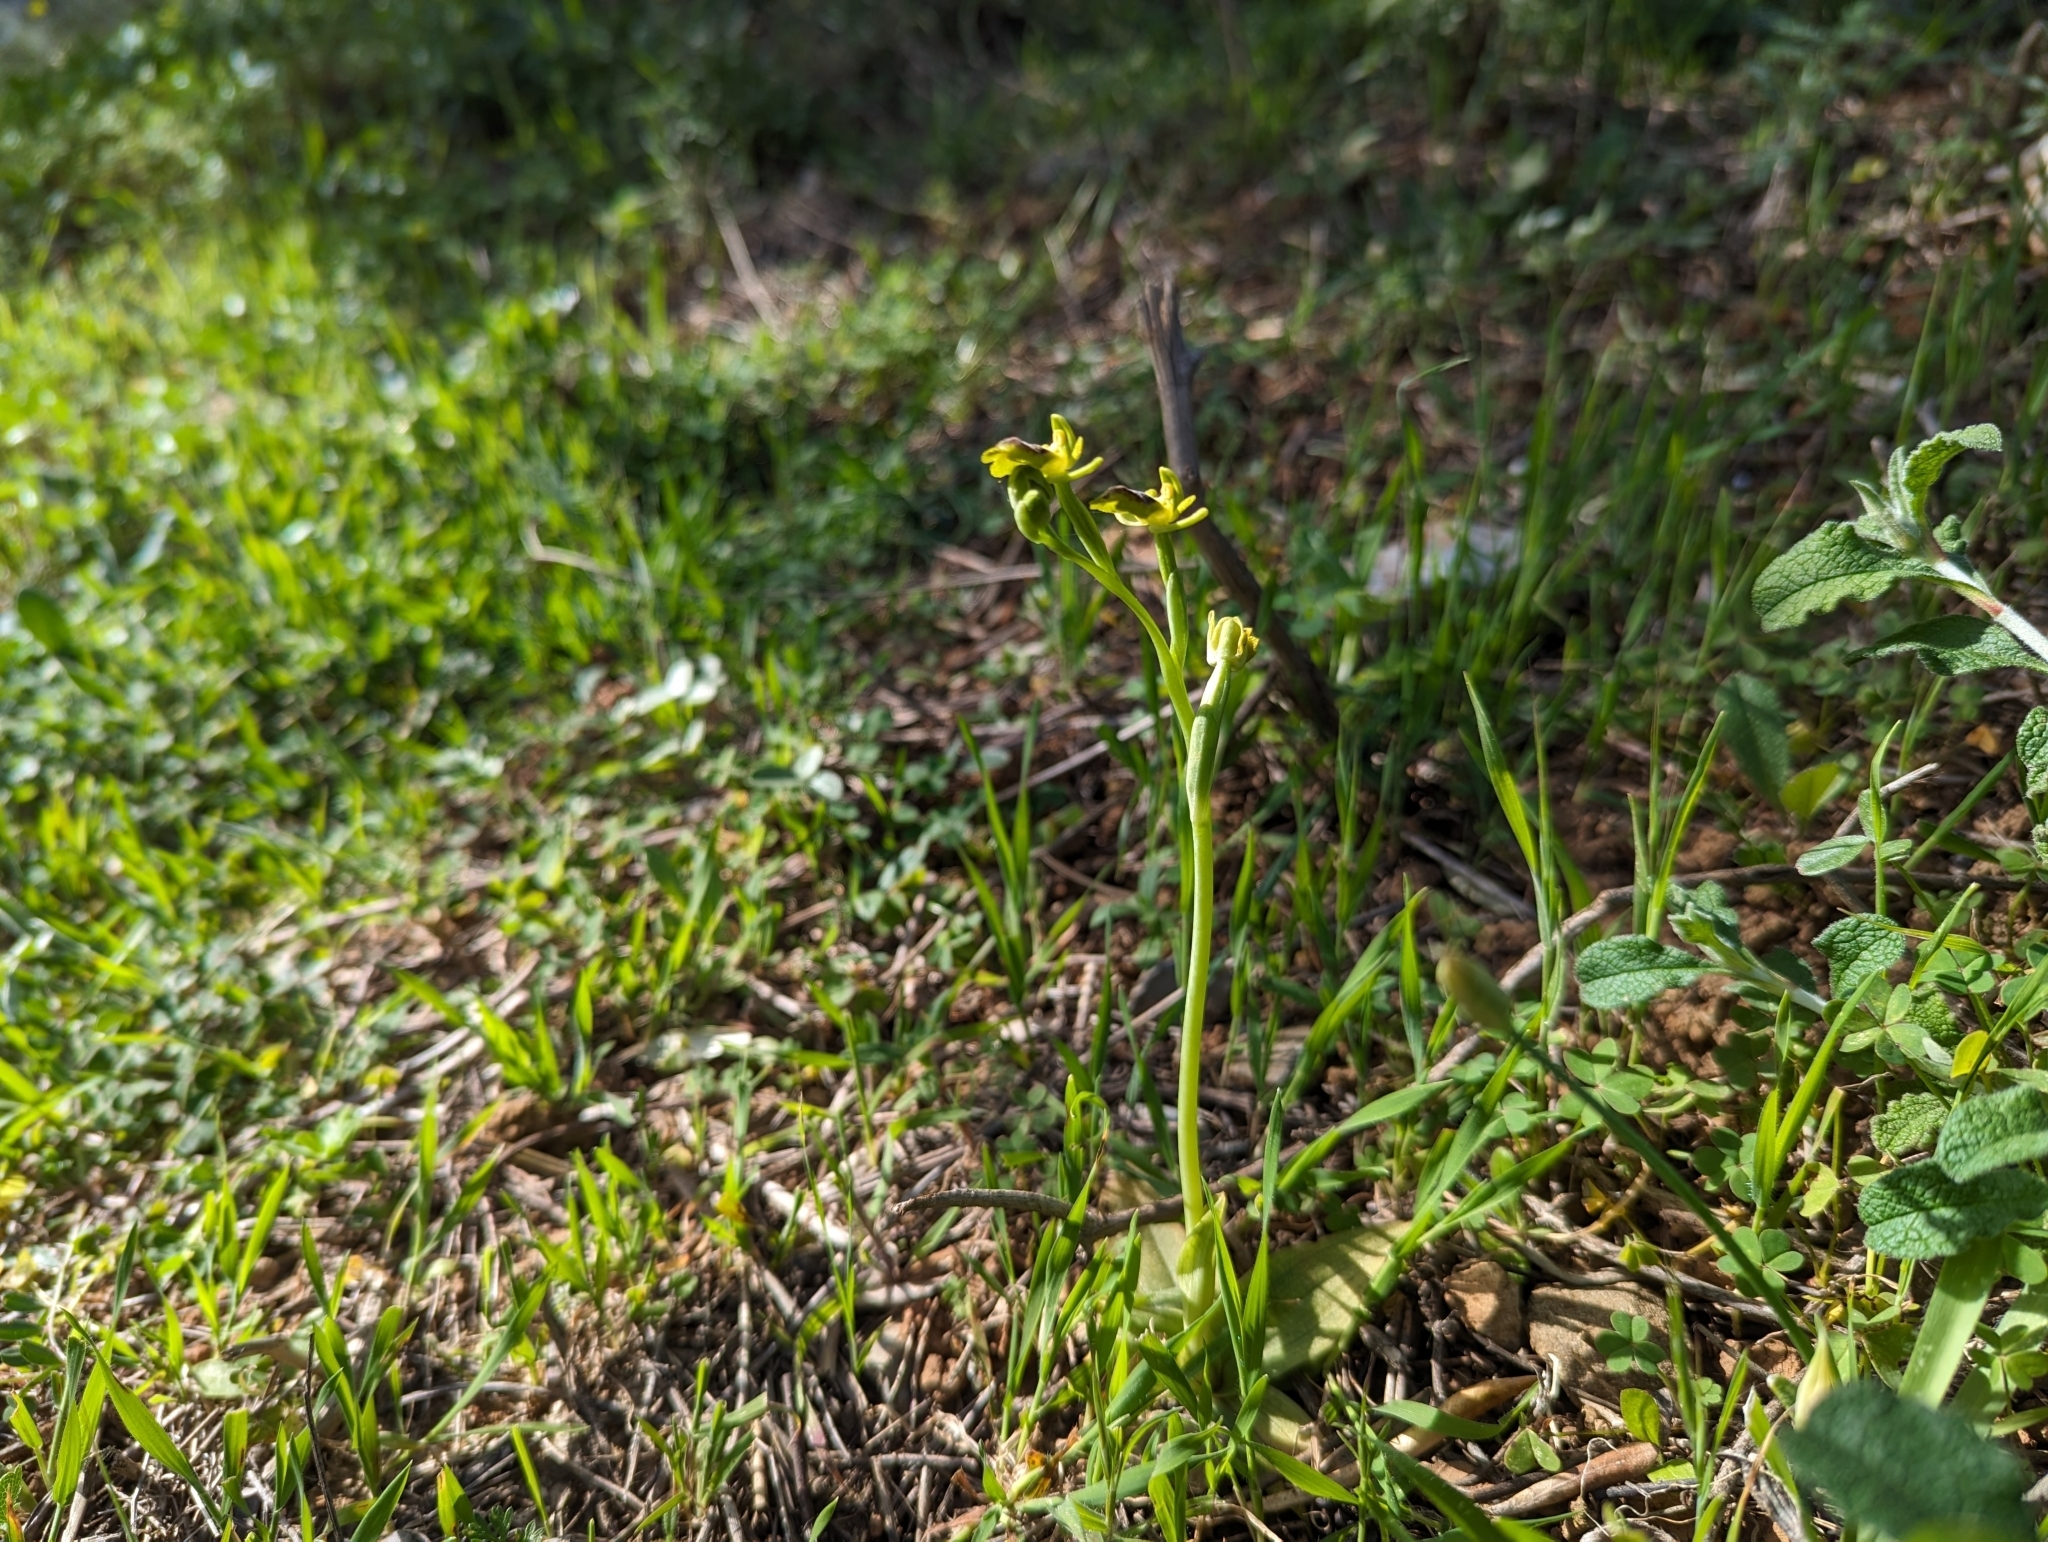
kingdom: Plantae
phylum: Tracheophyta
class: Liliopsida
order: Asparagales
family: Orchidaceae
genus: Ophrys
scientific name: Ophrys lutea
